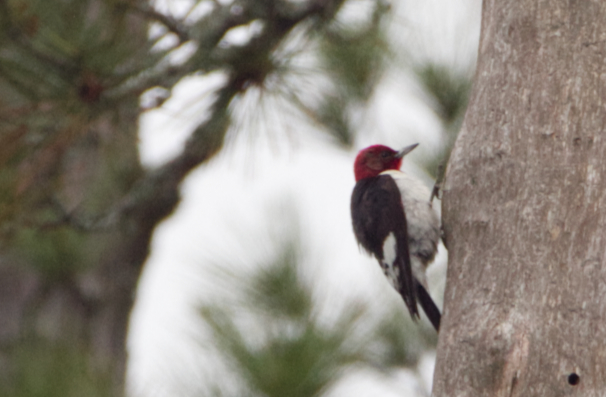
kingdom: Animalia
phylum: Chordata
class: Aves
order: Piciformes
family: Picidae
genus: Melanerpes
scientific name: Melanerpes erythrocephalus
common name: Red-headed woodpecker
